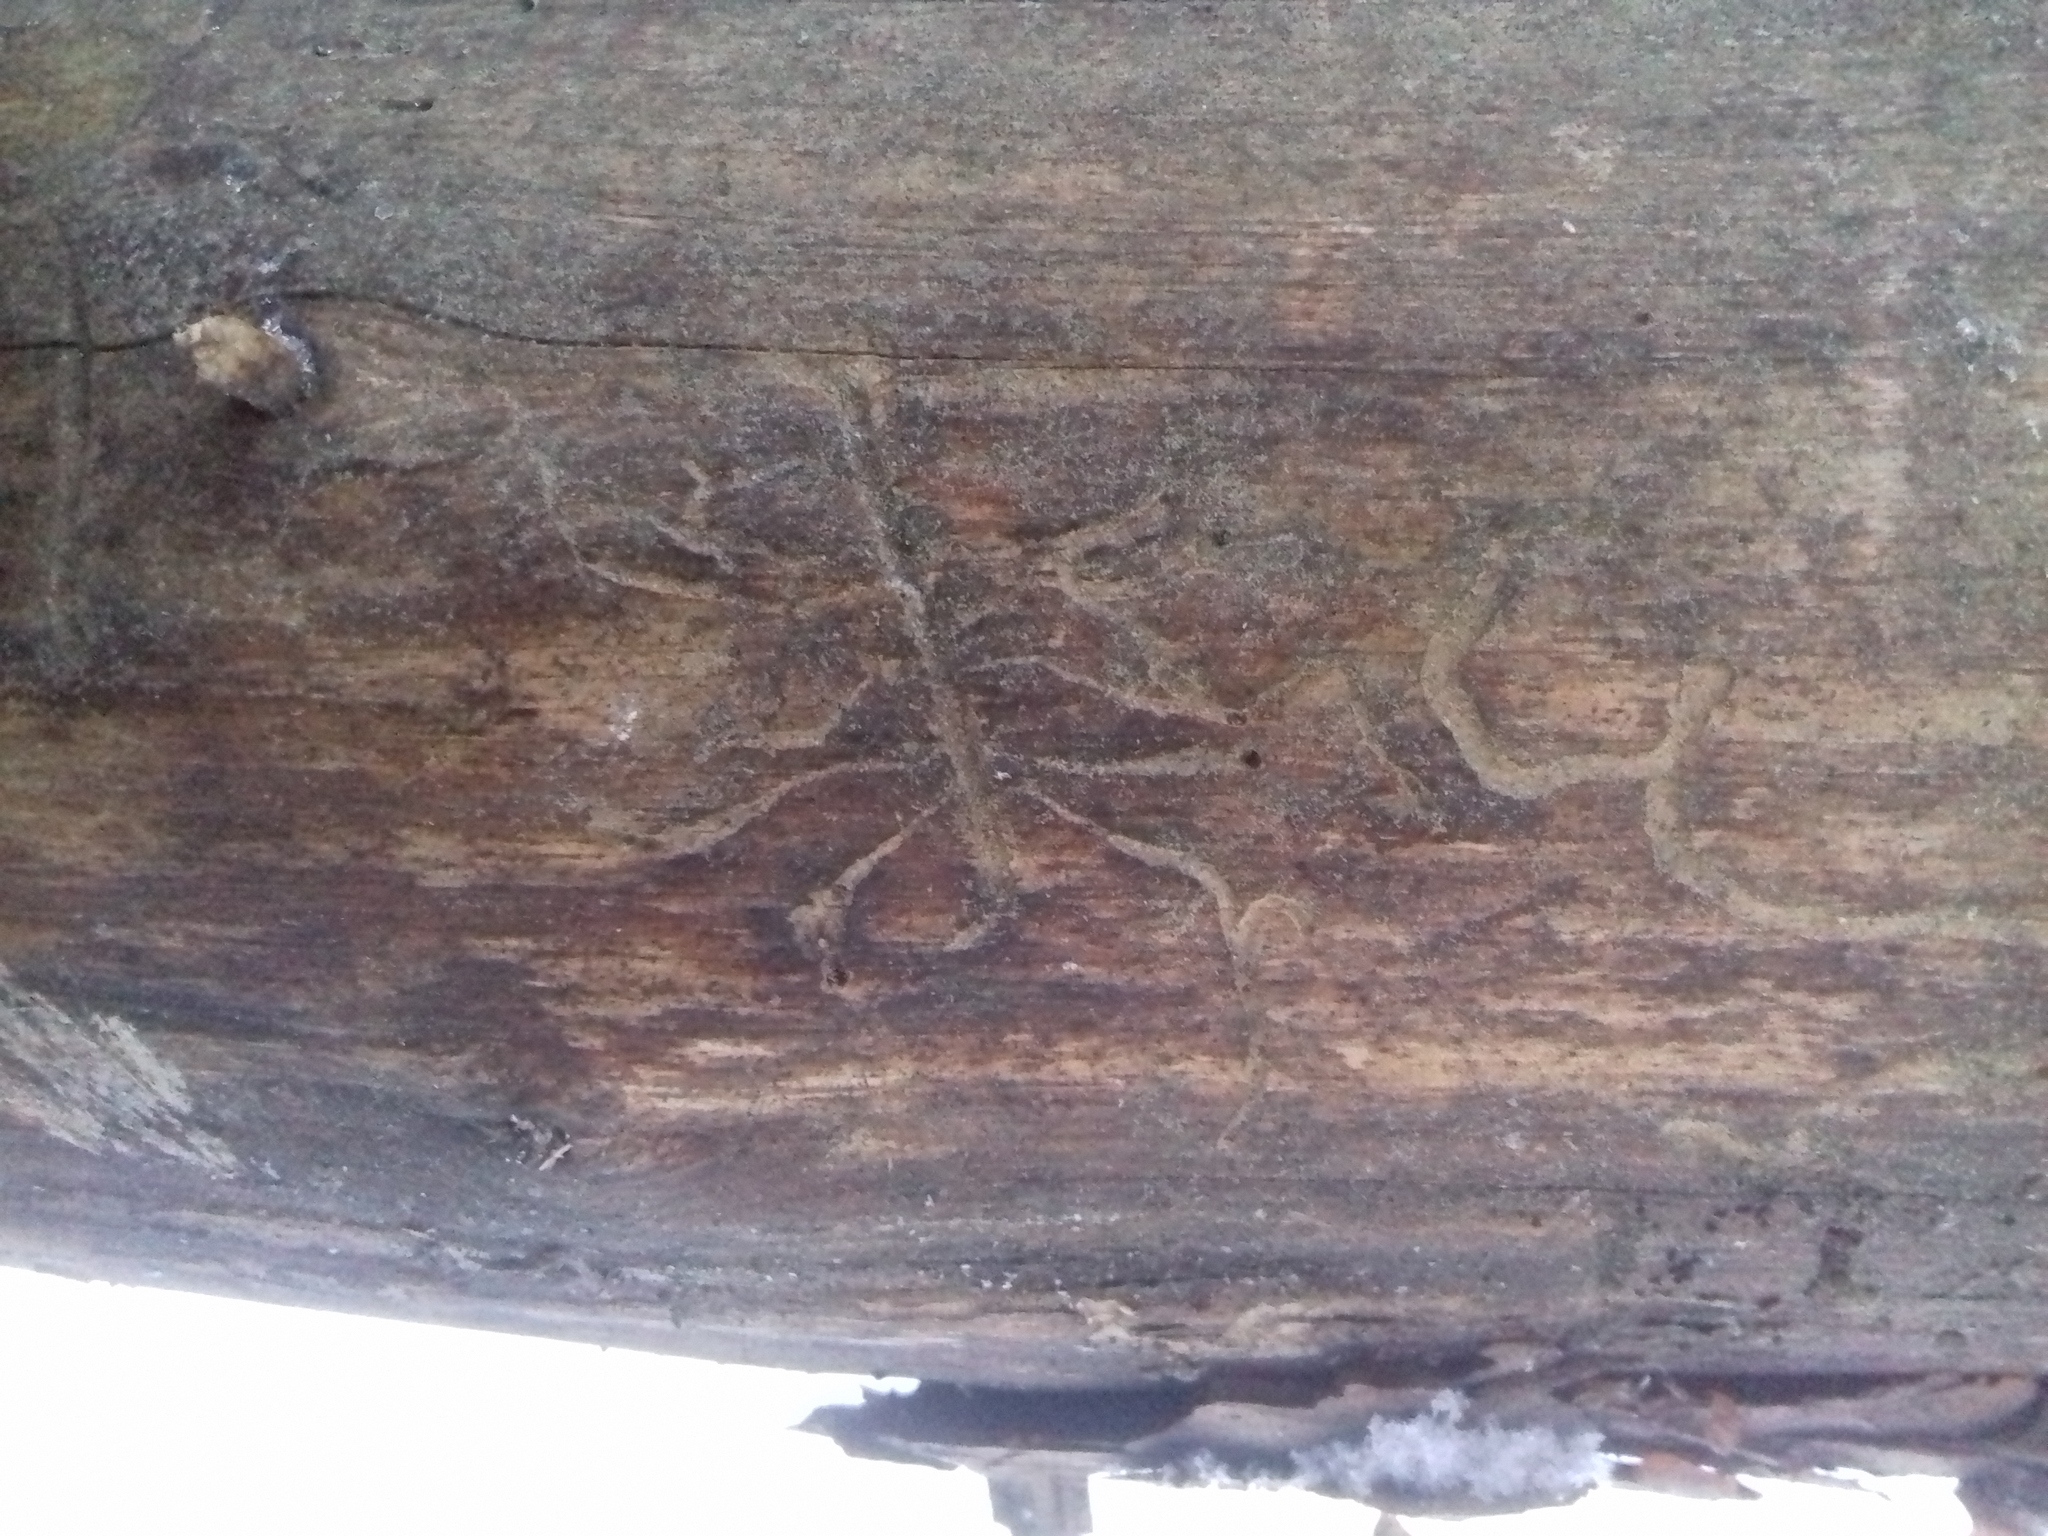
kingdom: Animalia
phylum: Arthropoda
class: Insecta
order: Coleoptera
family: Curculionidae
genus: Tomicus
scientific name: Tomicus minor
